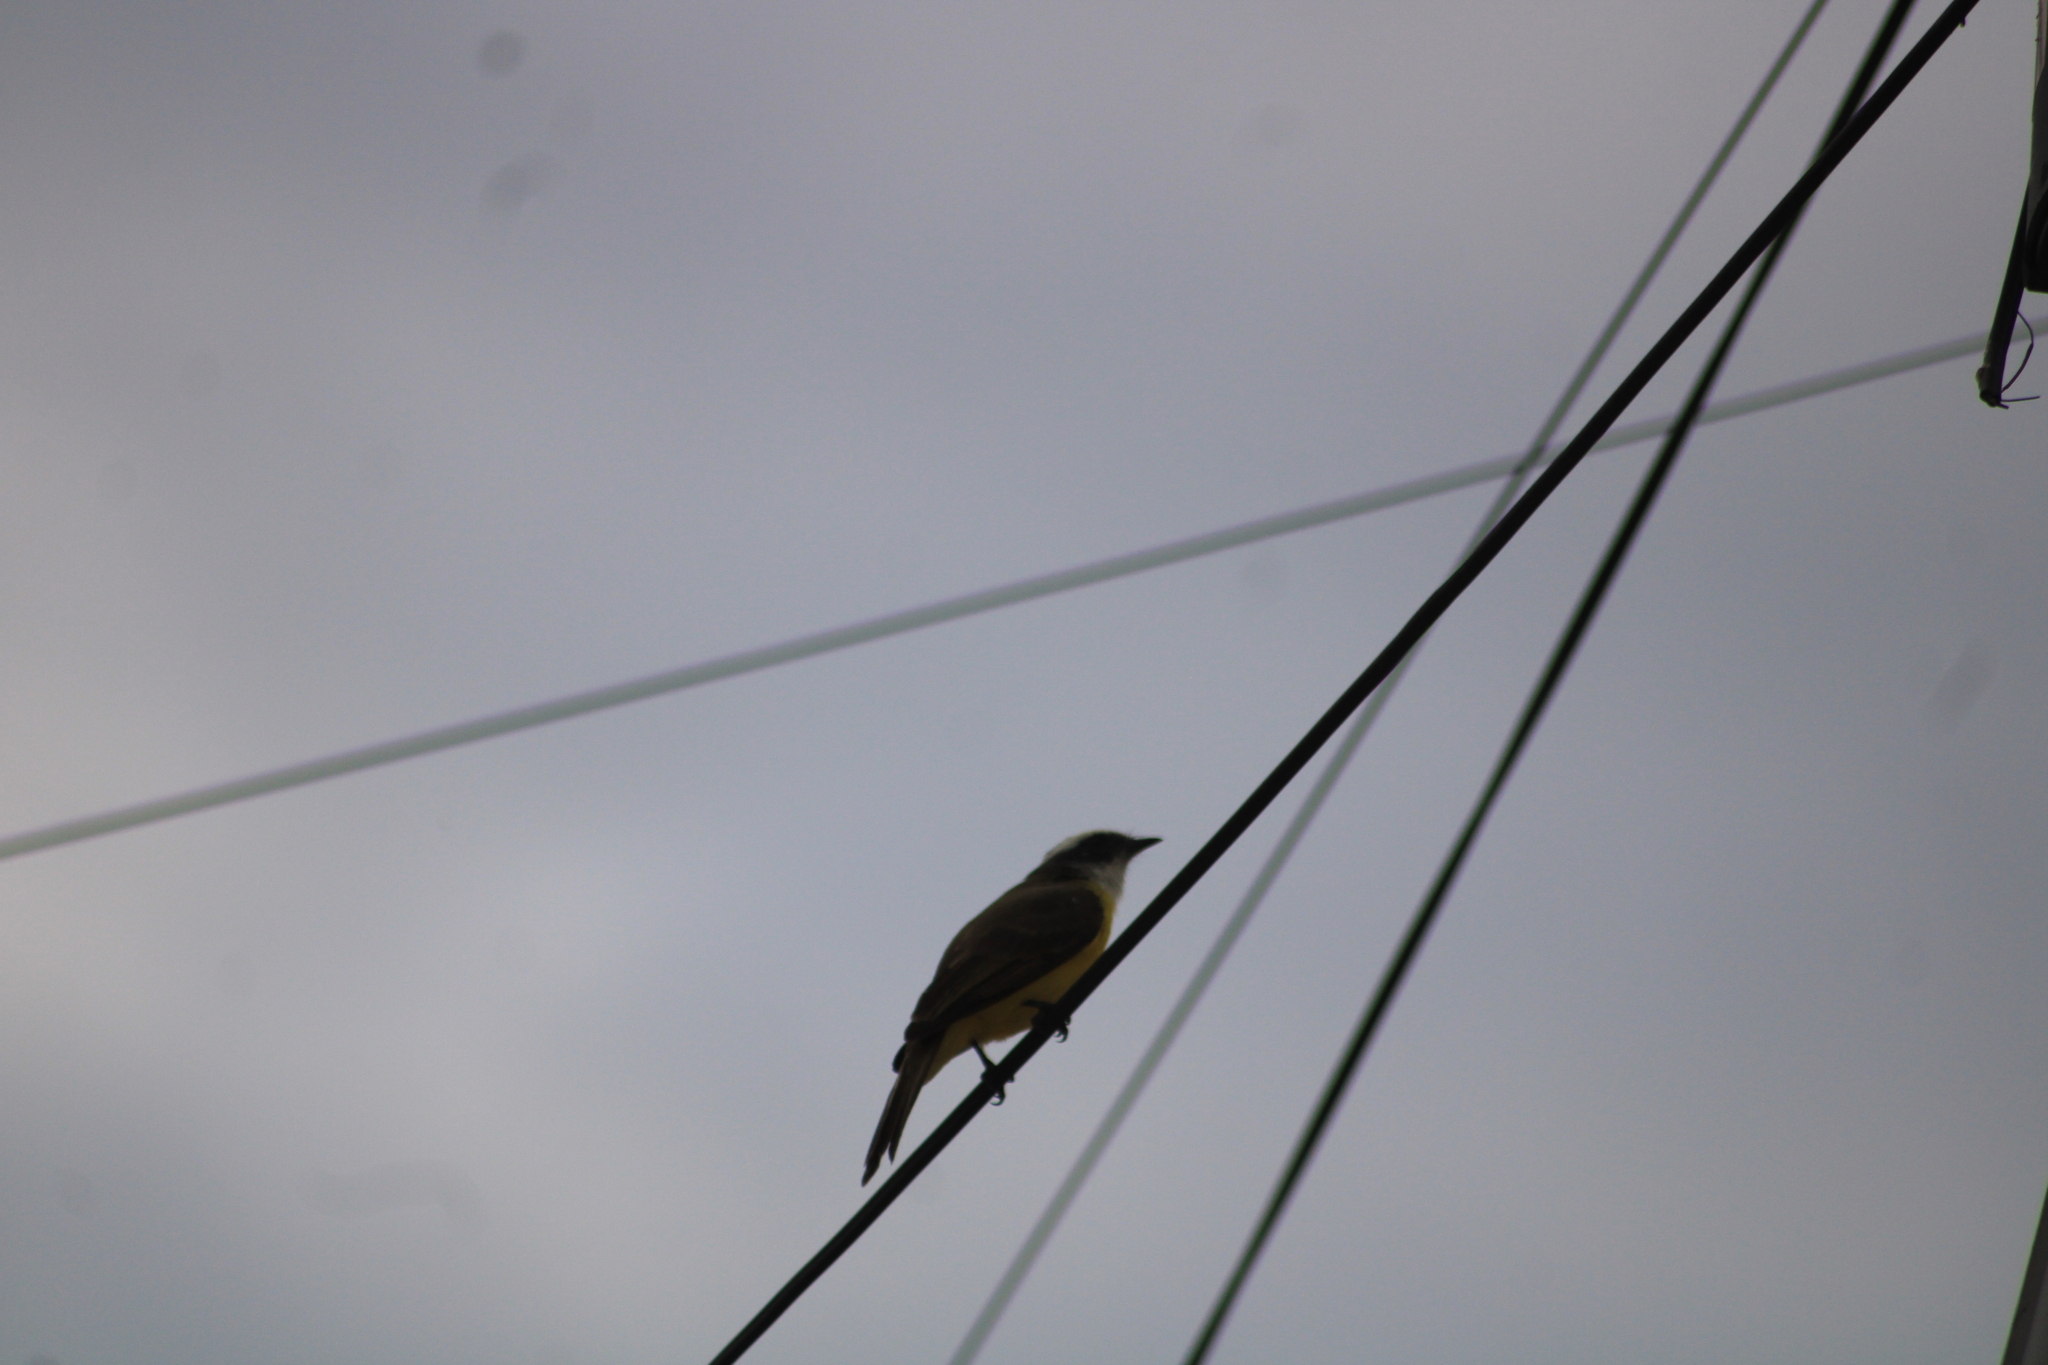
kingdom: Animalia
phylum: Chordata
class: Aves
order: Passeriformes
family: Tyrannidae
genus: Myiozetetes
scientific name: Myiozetetes similis
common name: Social flycatcher
